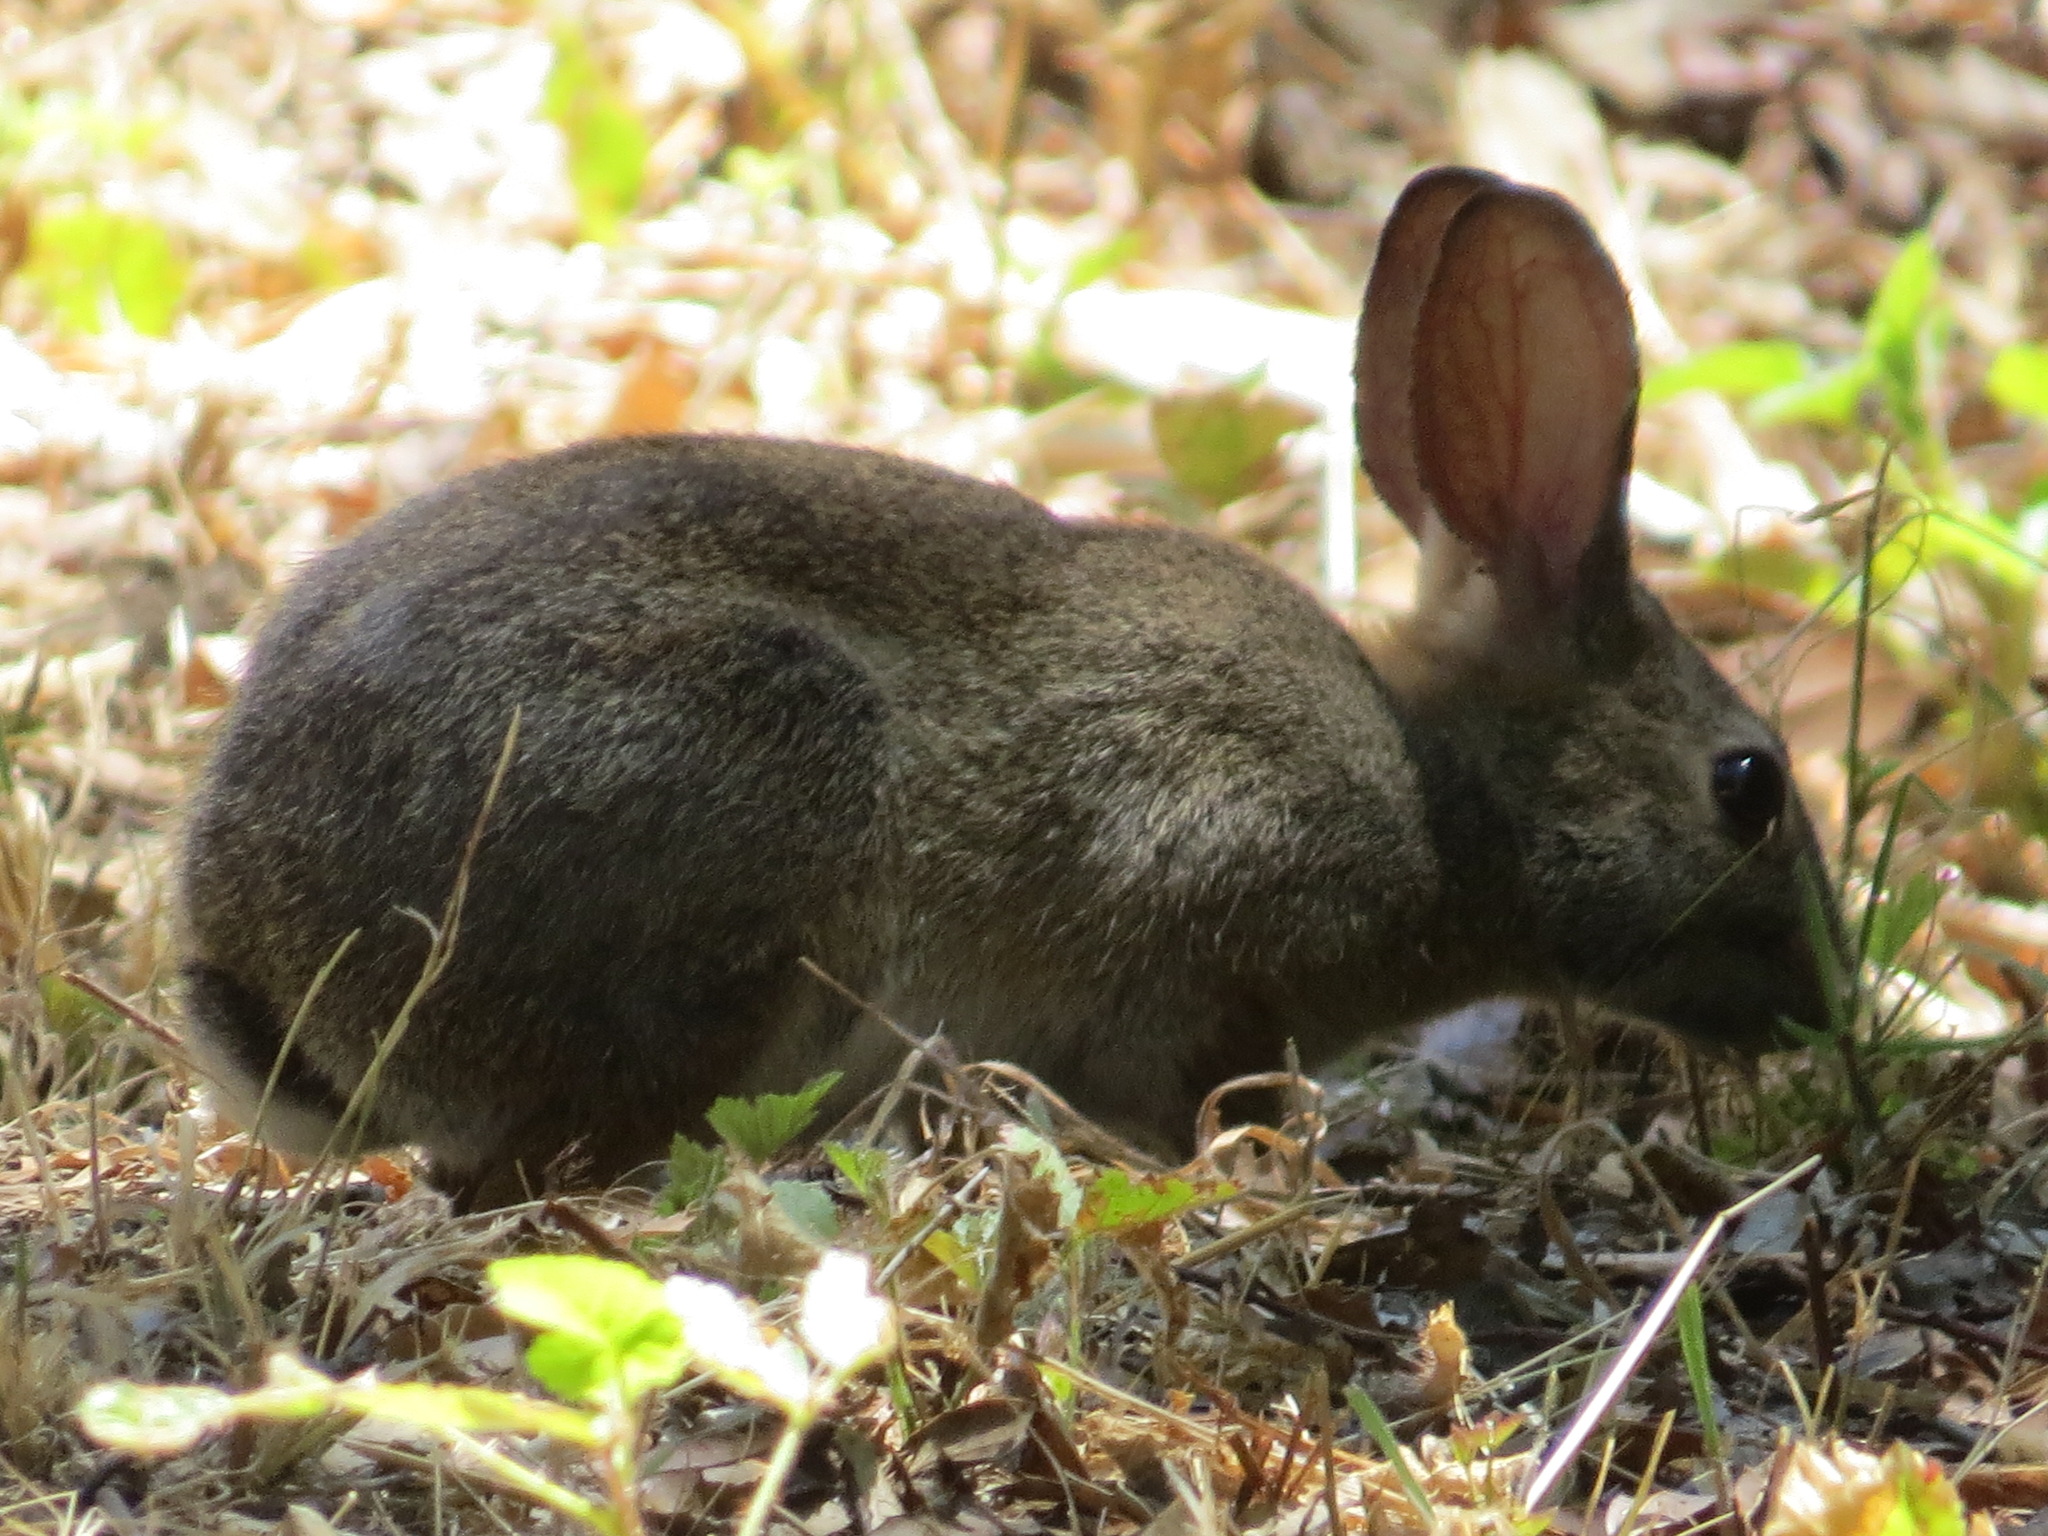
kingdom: Animalia
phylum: Chordata
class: Mammalia
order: Lagomorpha
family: Leporidae
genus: Sylvilagus
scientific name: Sylvilagus bachmani
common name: Brush rabbit
